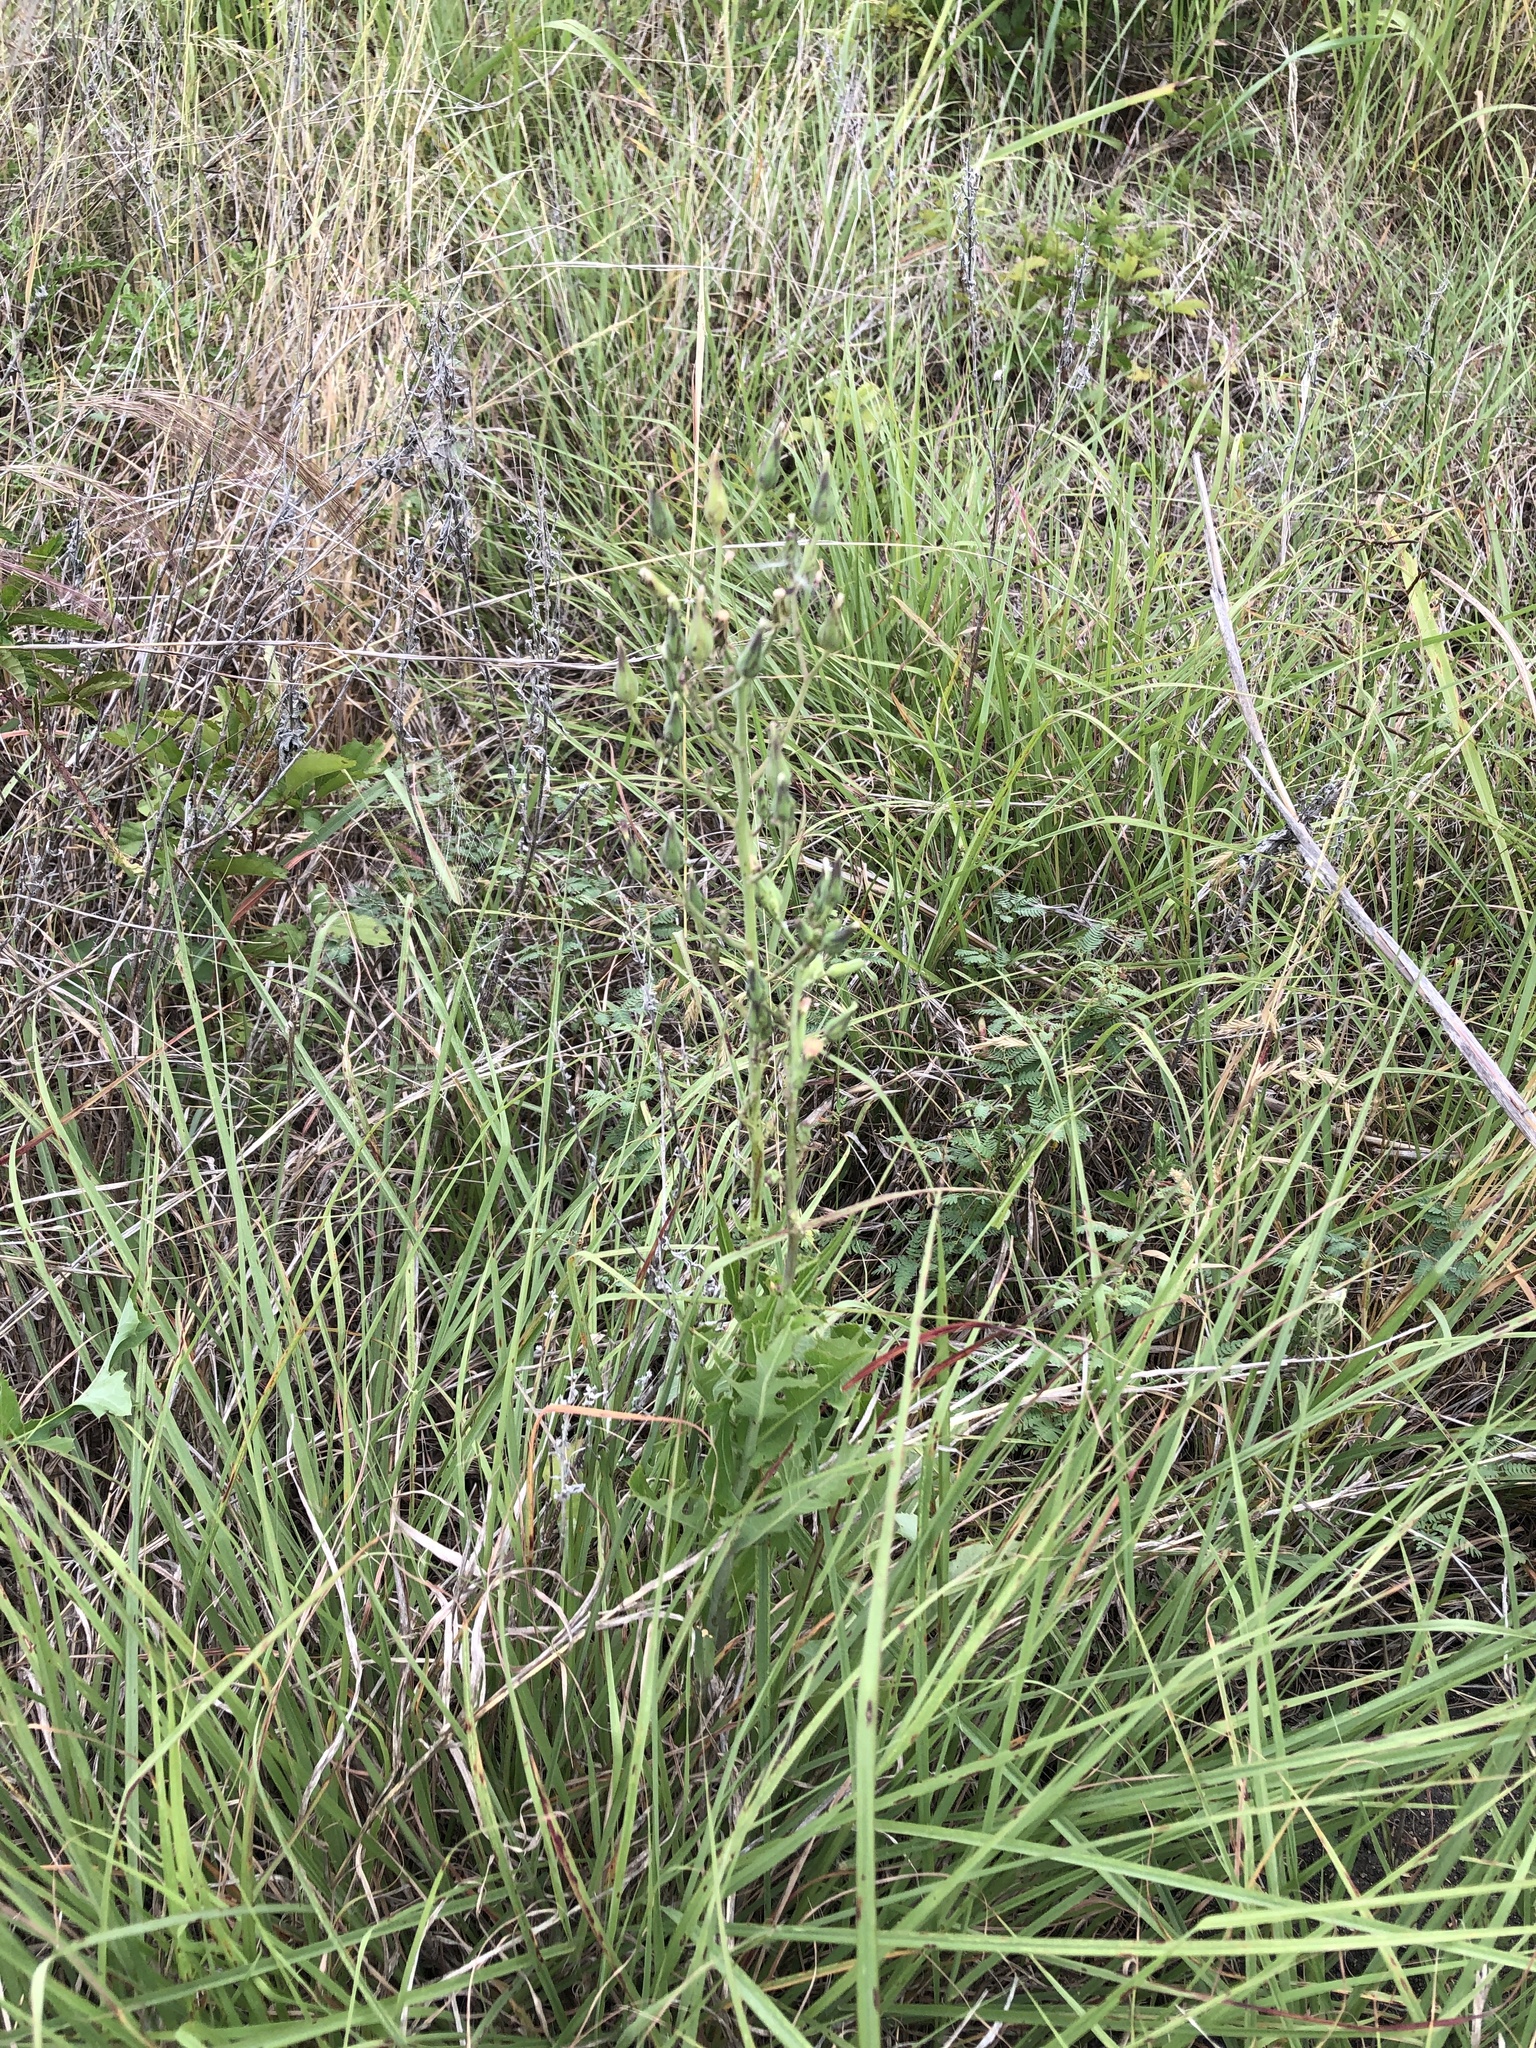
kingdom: Plantae
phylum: Tracheophyta
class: Magnoliopsida
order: Asterales
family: Asteraceae
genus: Lactuca
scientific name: Lactuca ludoviciana
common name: Louisiana lettuce
